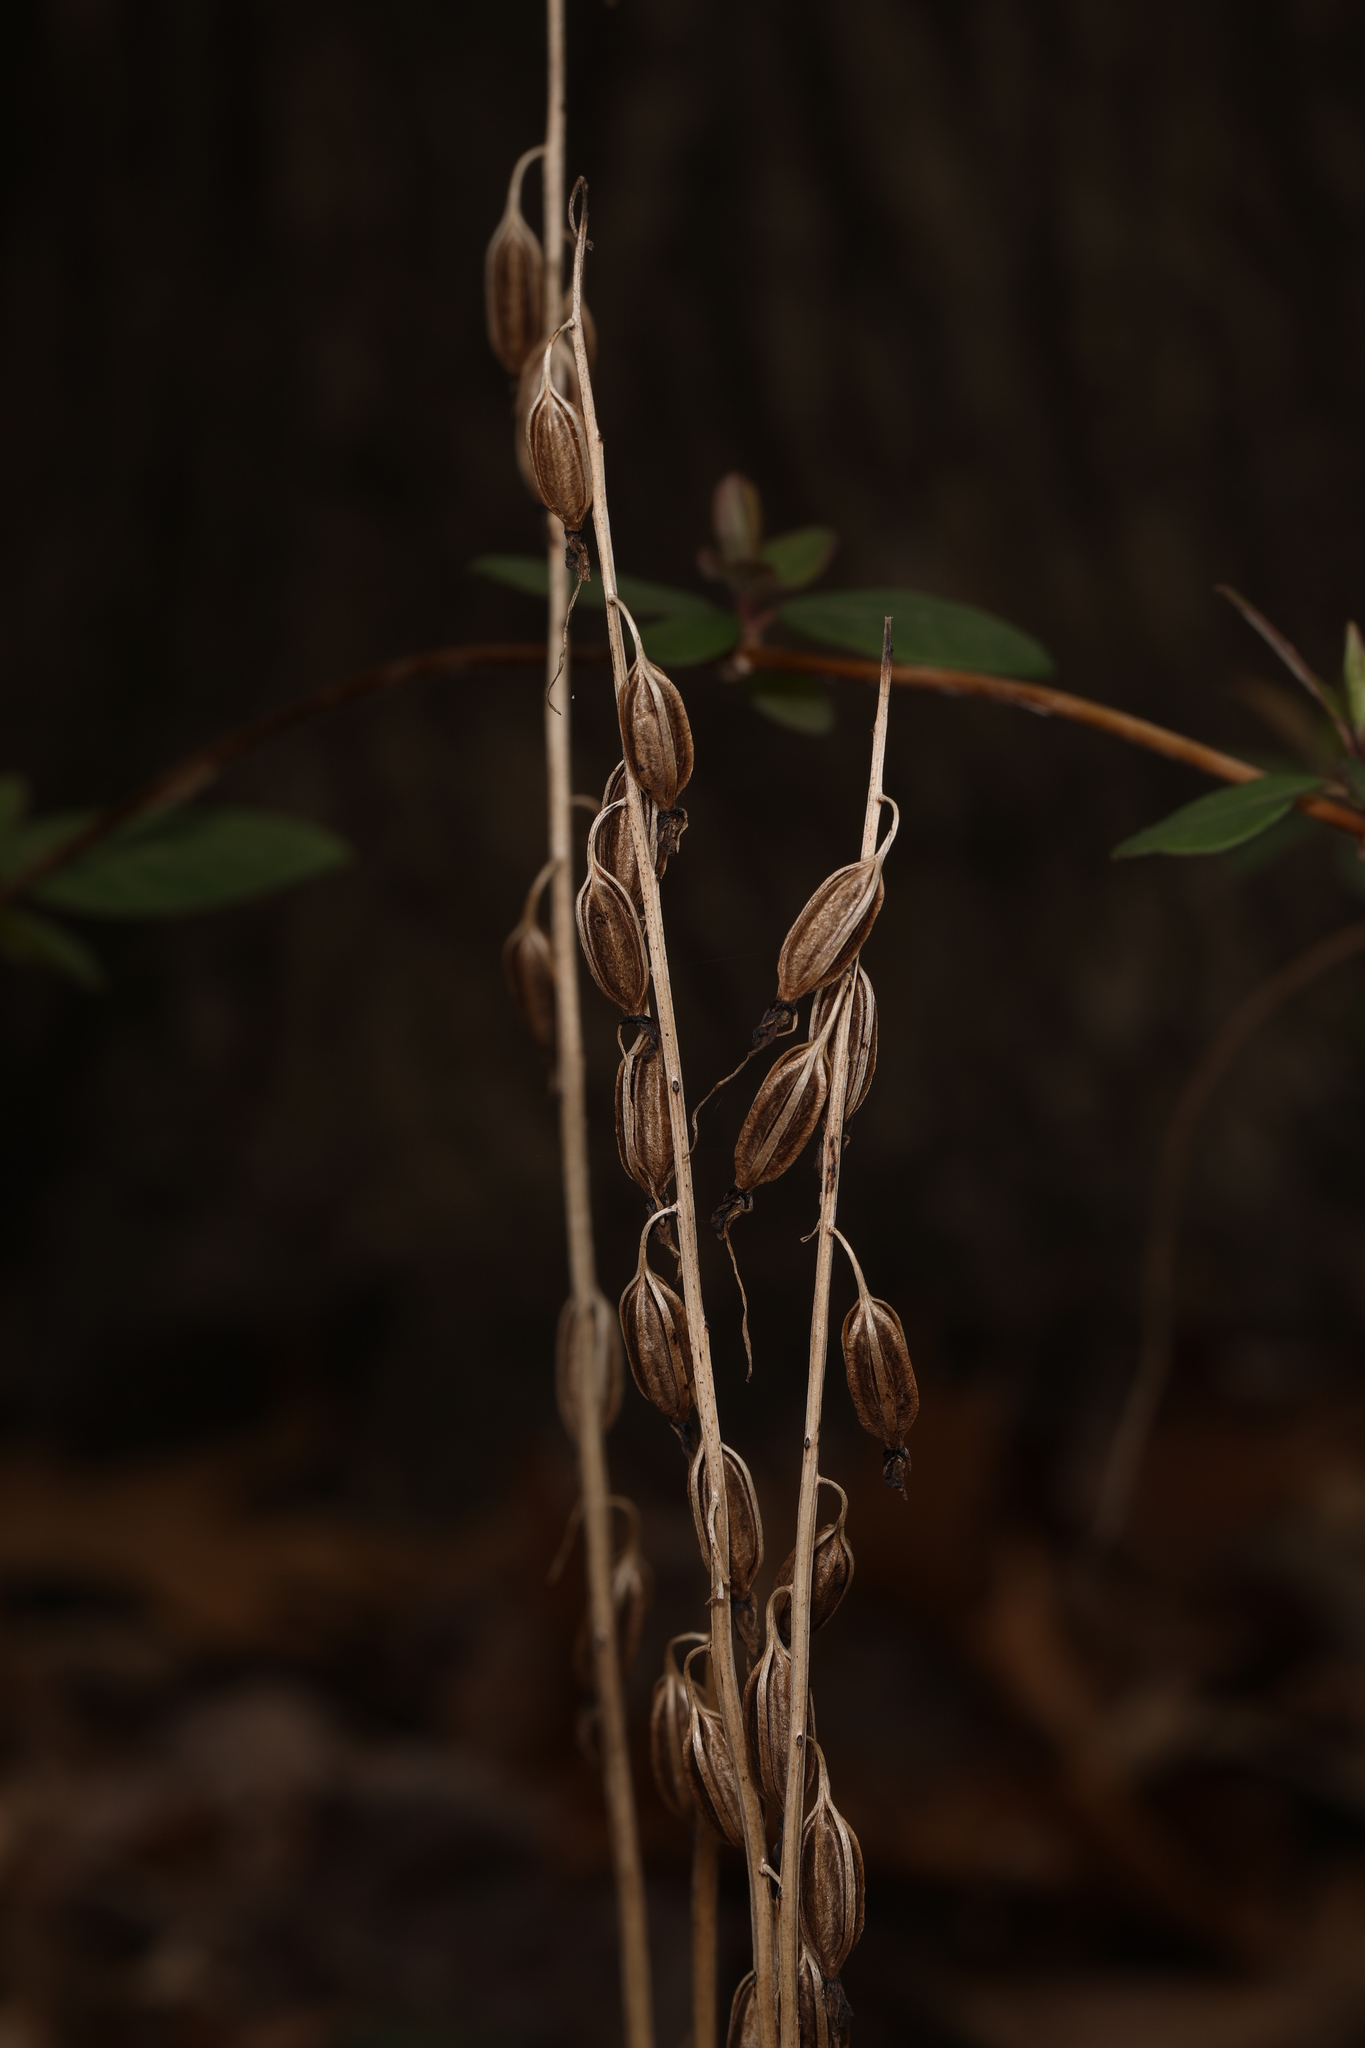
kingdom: Plantae
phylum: Tracheophyta
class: Liliopsida
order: Asparagales
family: Orchidaceae
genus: Tipularia
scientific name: Tipularia discolor
